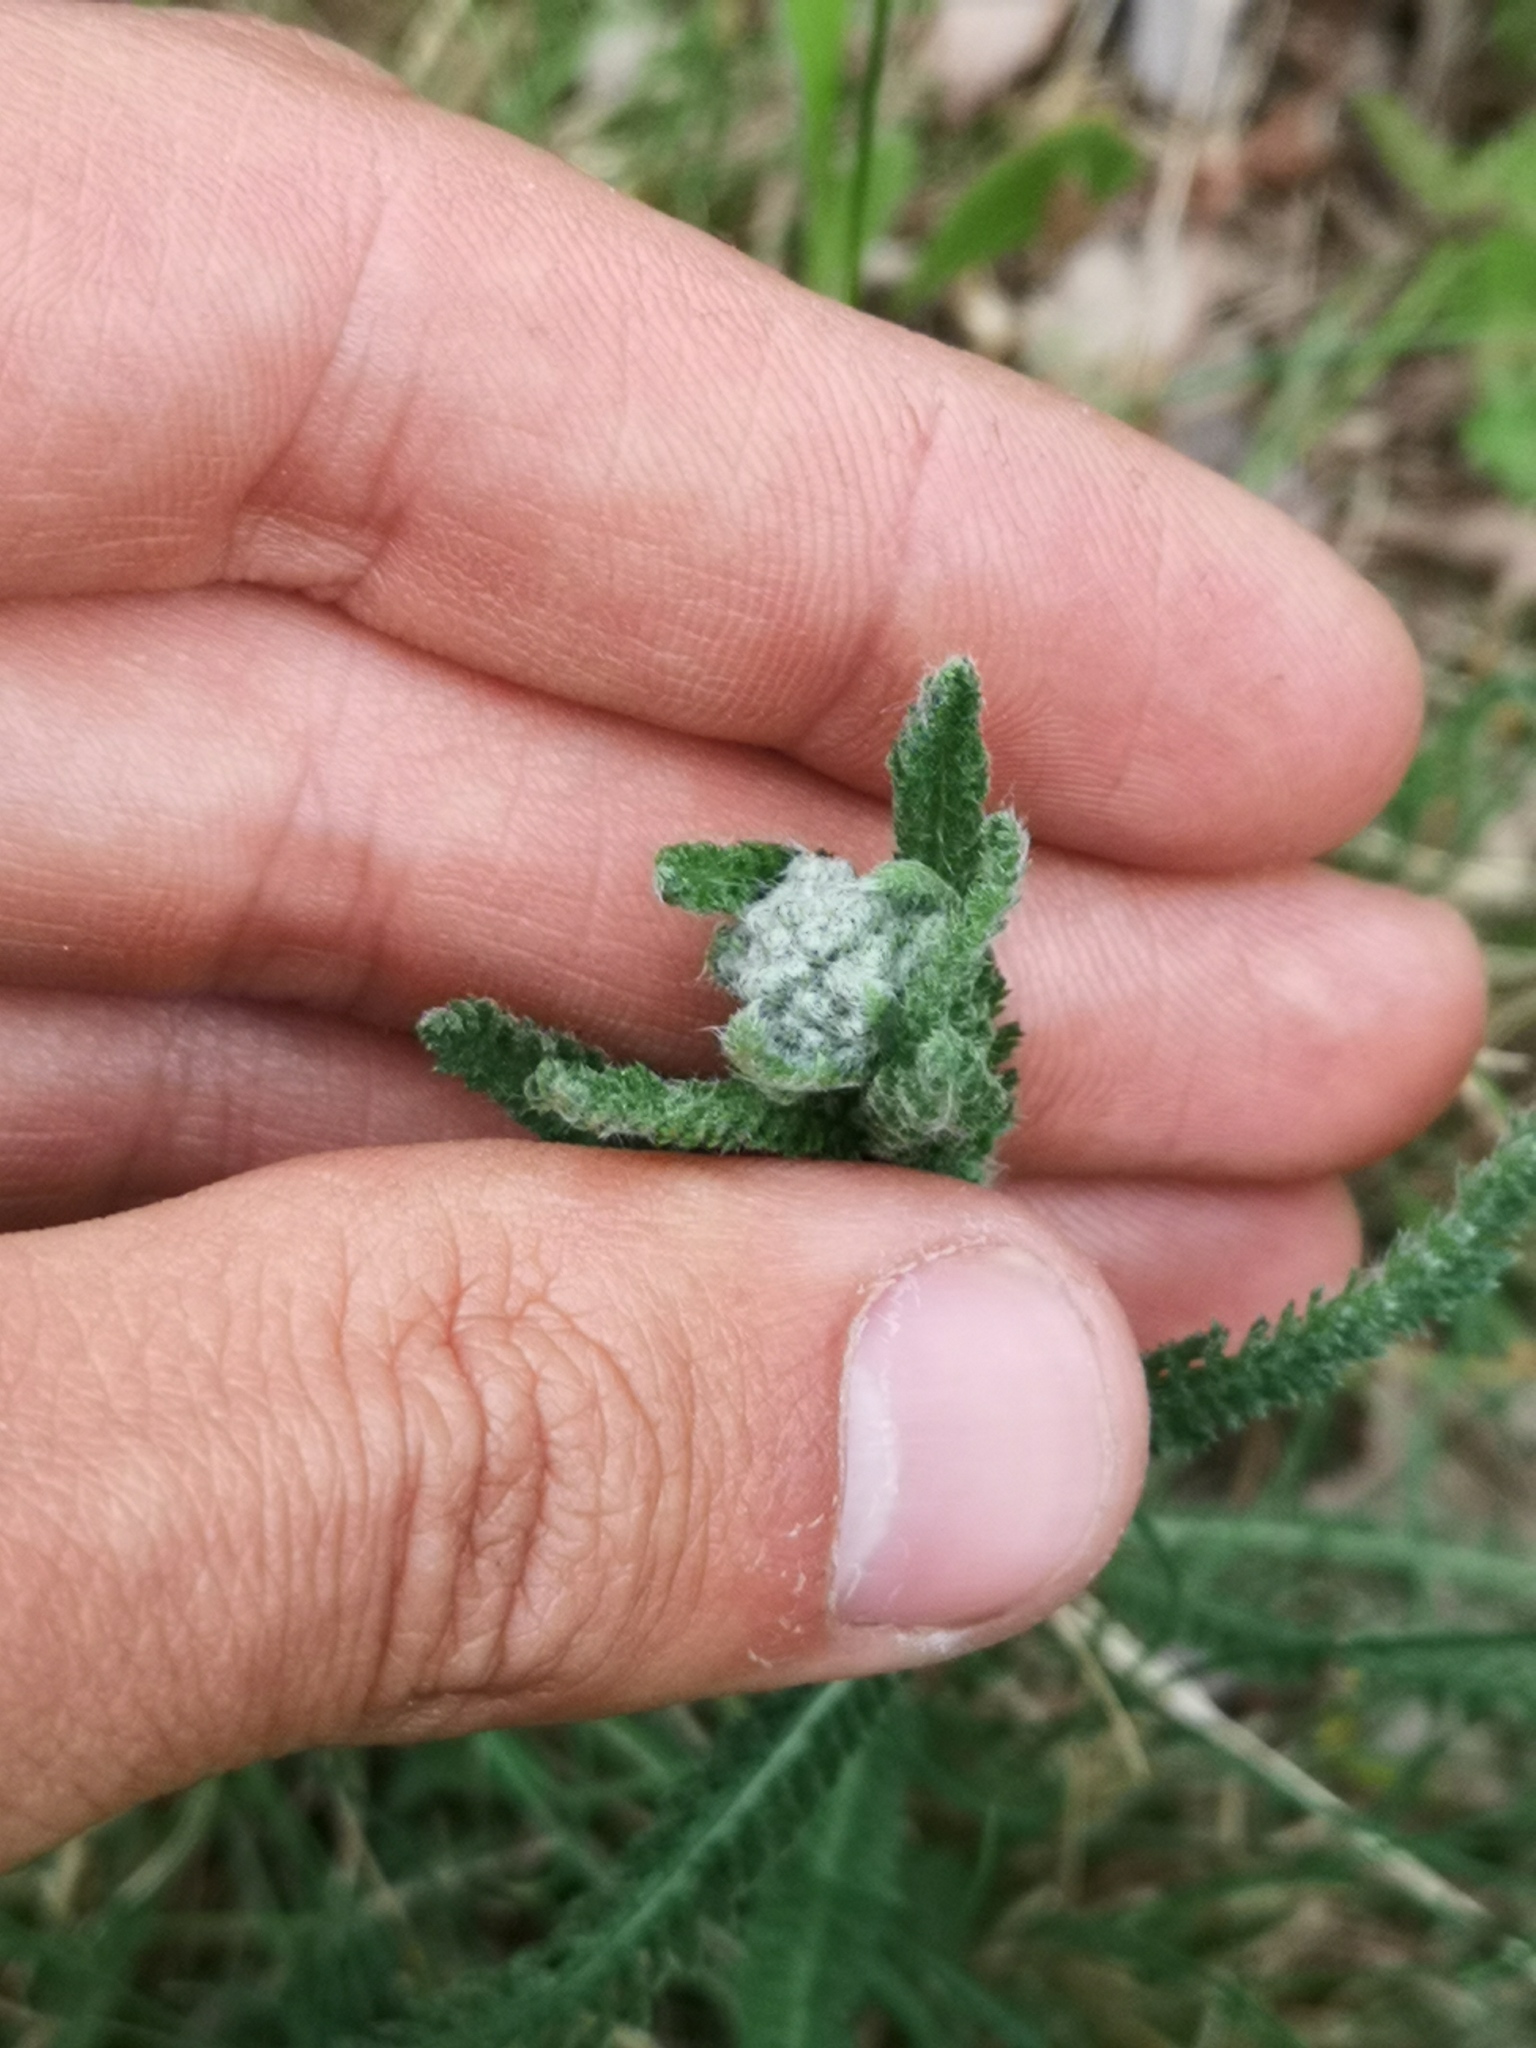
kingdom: Plantae
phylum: Tracheophyta
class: Magnoliopsida
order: Asterales
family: Asteraceae
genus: Achillea
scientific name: Achillea millefolium
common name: Yarrow
